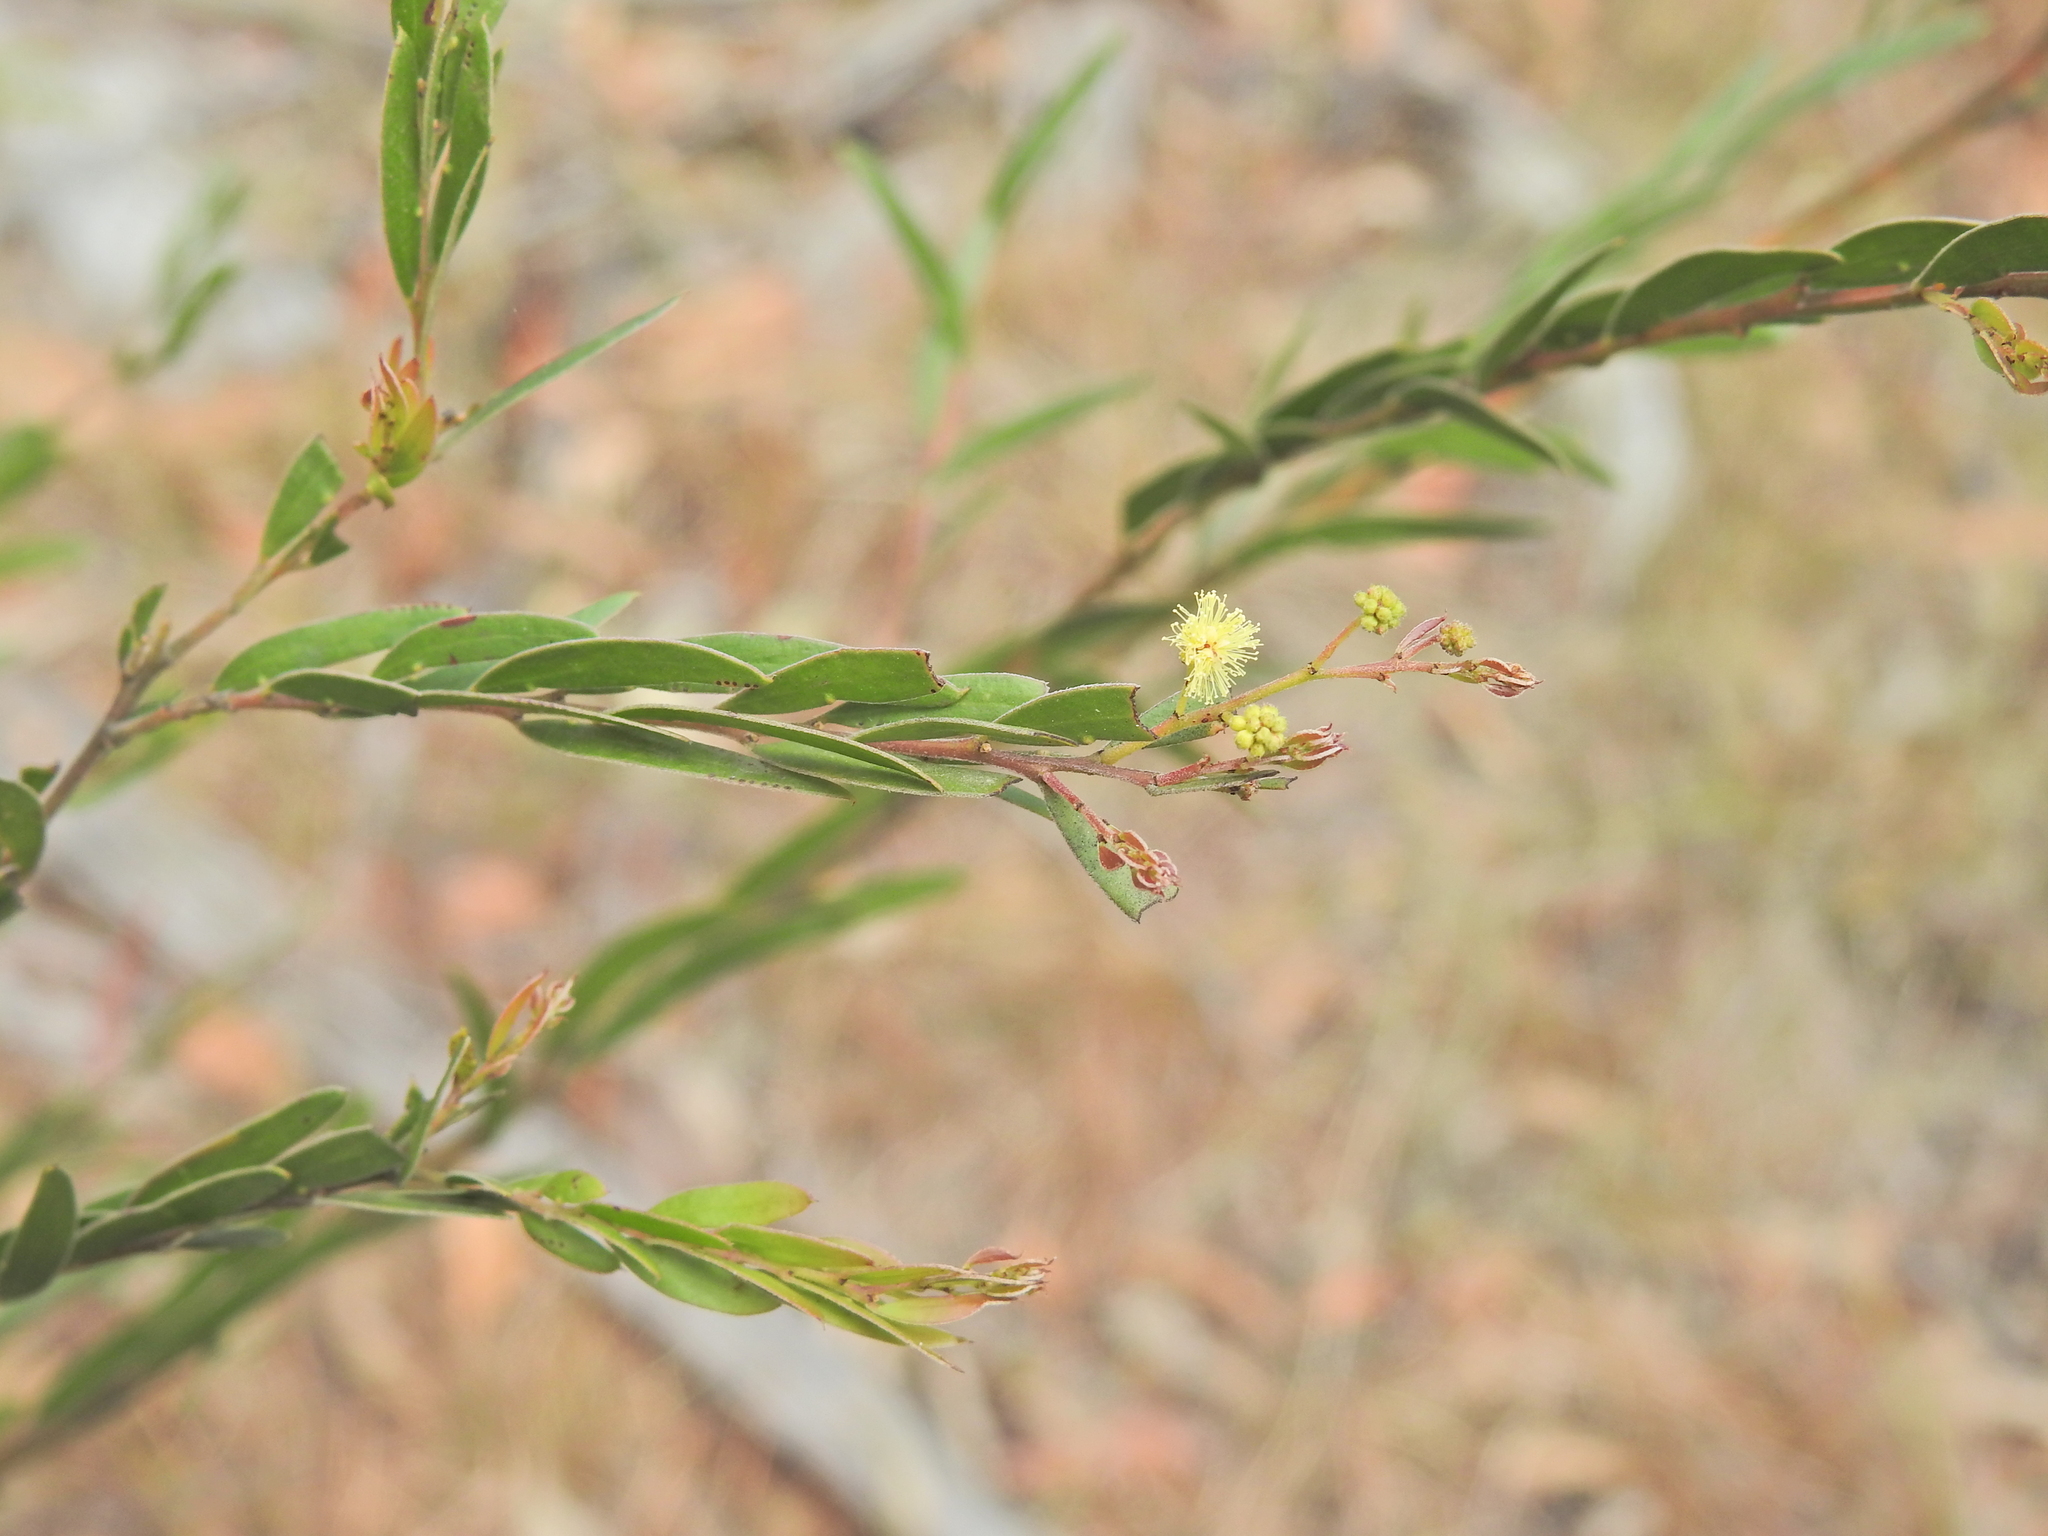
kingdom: Plantae
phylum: Tracheophyta
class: Magnoliopsida
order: Fabales
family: Fabaceae
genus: Acacia
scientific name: Acacia fimbriata
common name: Brisbane golden wattle
